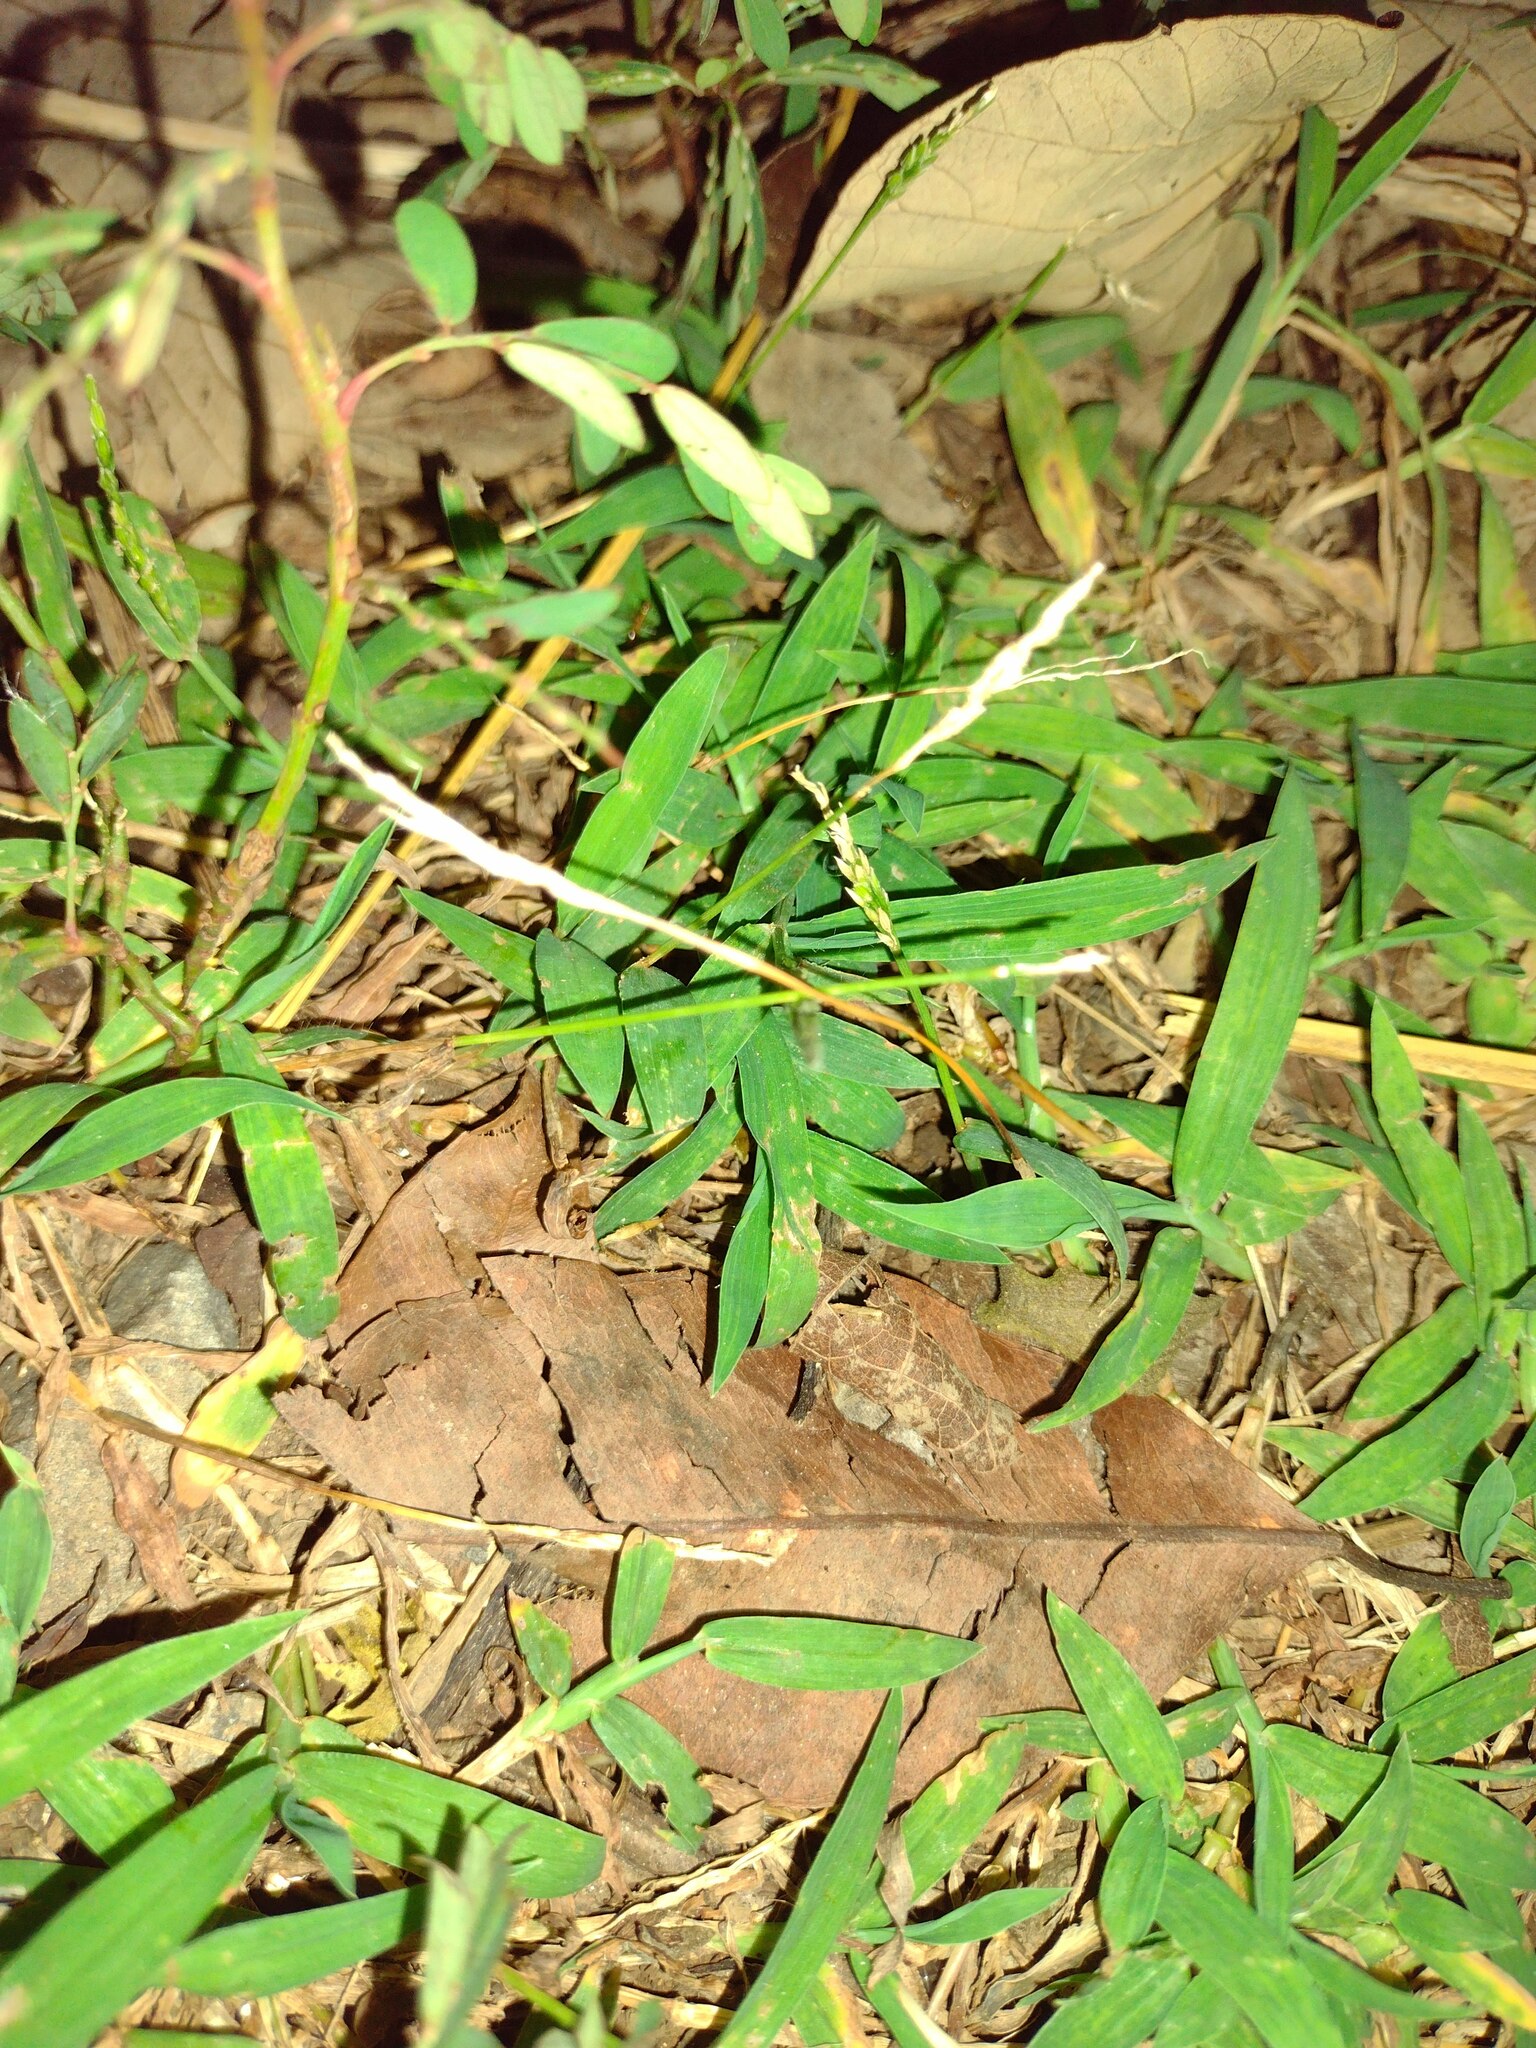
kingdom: Plantae
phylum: Tracheophyta
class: Liliopsida
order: Poales
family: Poaceae
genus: Digitaria
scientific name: Digitaria ciliaris
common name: Tropical finger-grass
